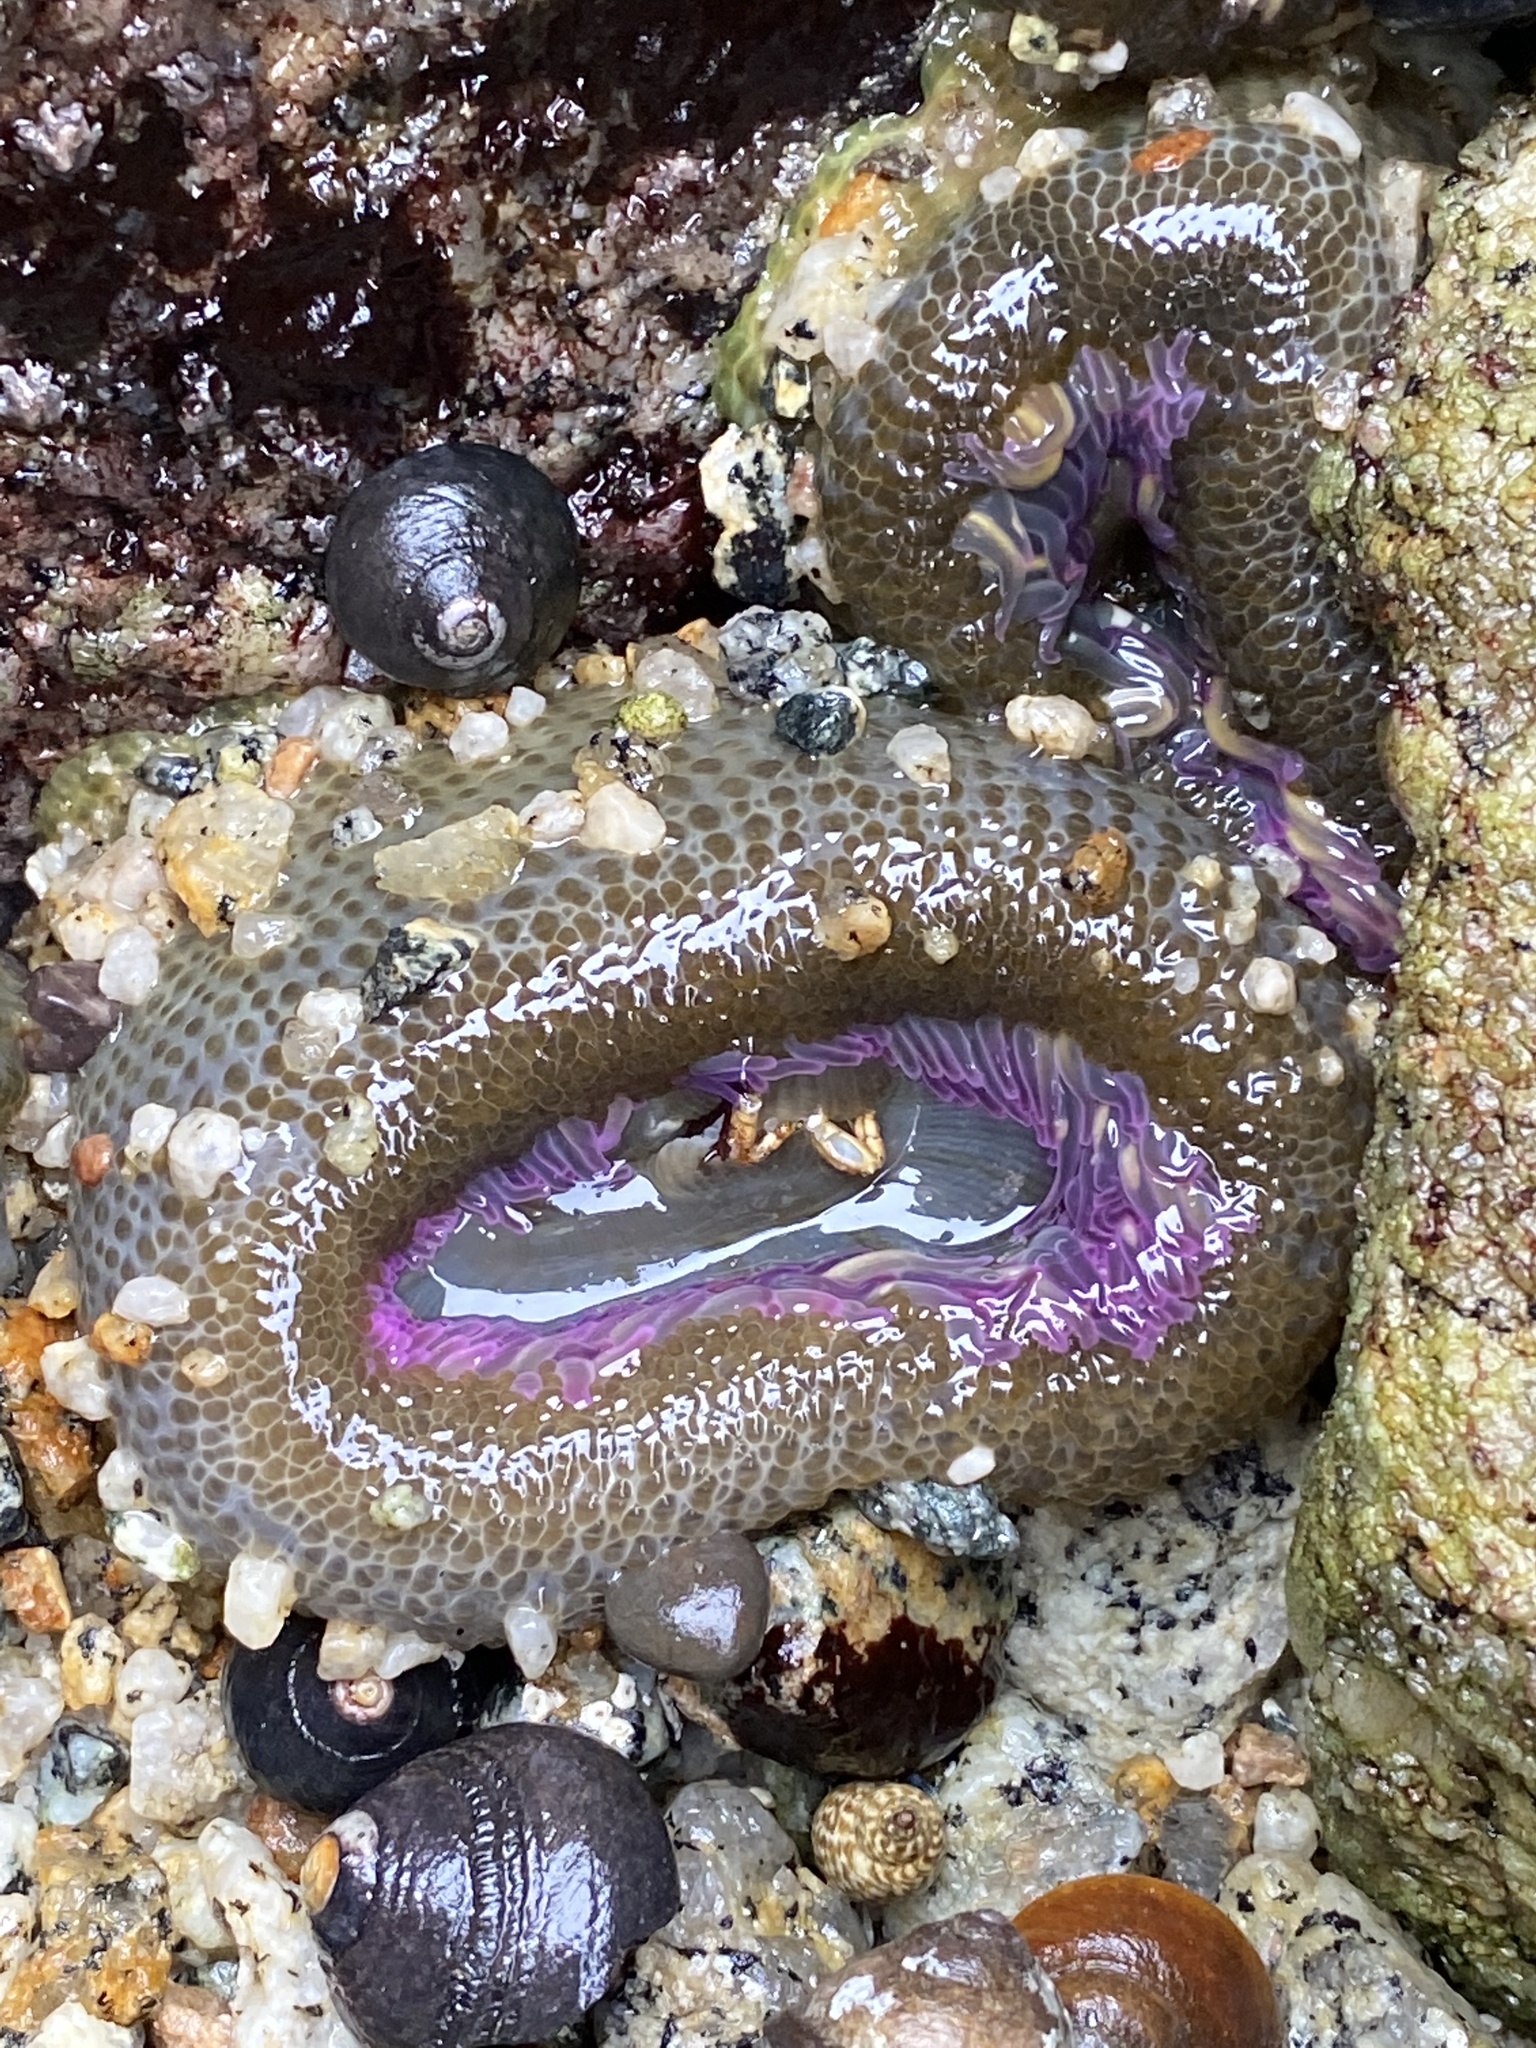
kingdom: Animalia
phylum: Cnidaria
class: Anthozoa
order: Actiniaria
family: Actiniidae
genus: Anthopleura
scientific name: Anthopleura elegantissima
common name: Clonal anemone
